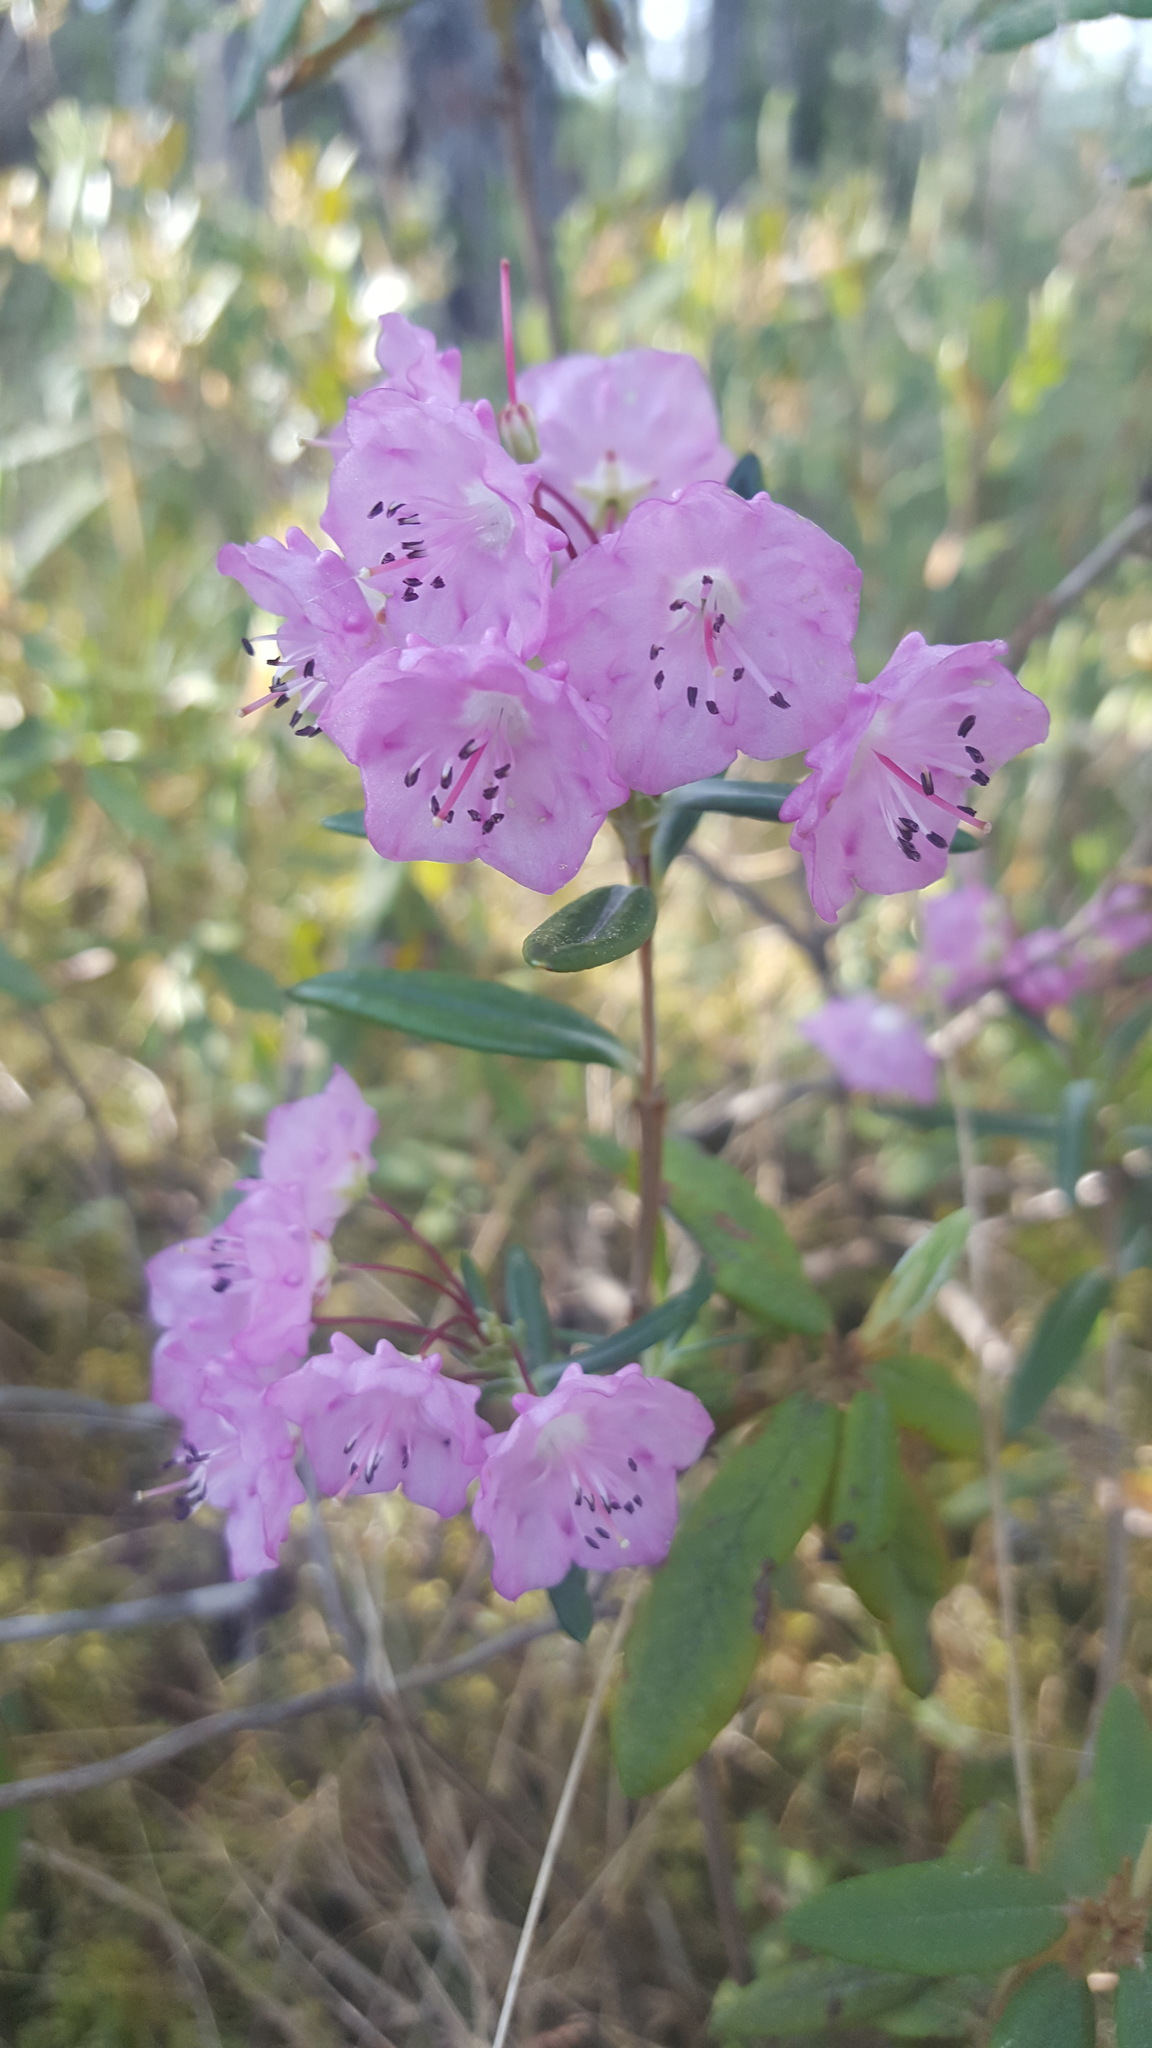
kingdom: Plantae
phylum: Tracheophyta
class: Magnoliopsida
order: Ericales
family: Ericaceae
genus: Kalmia
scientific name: Kalmia polifolia
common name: Bog-laurel
